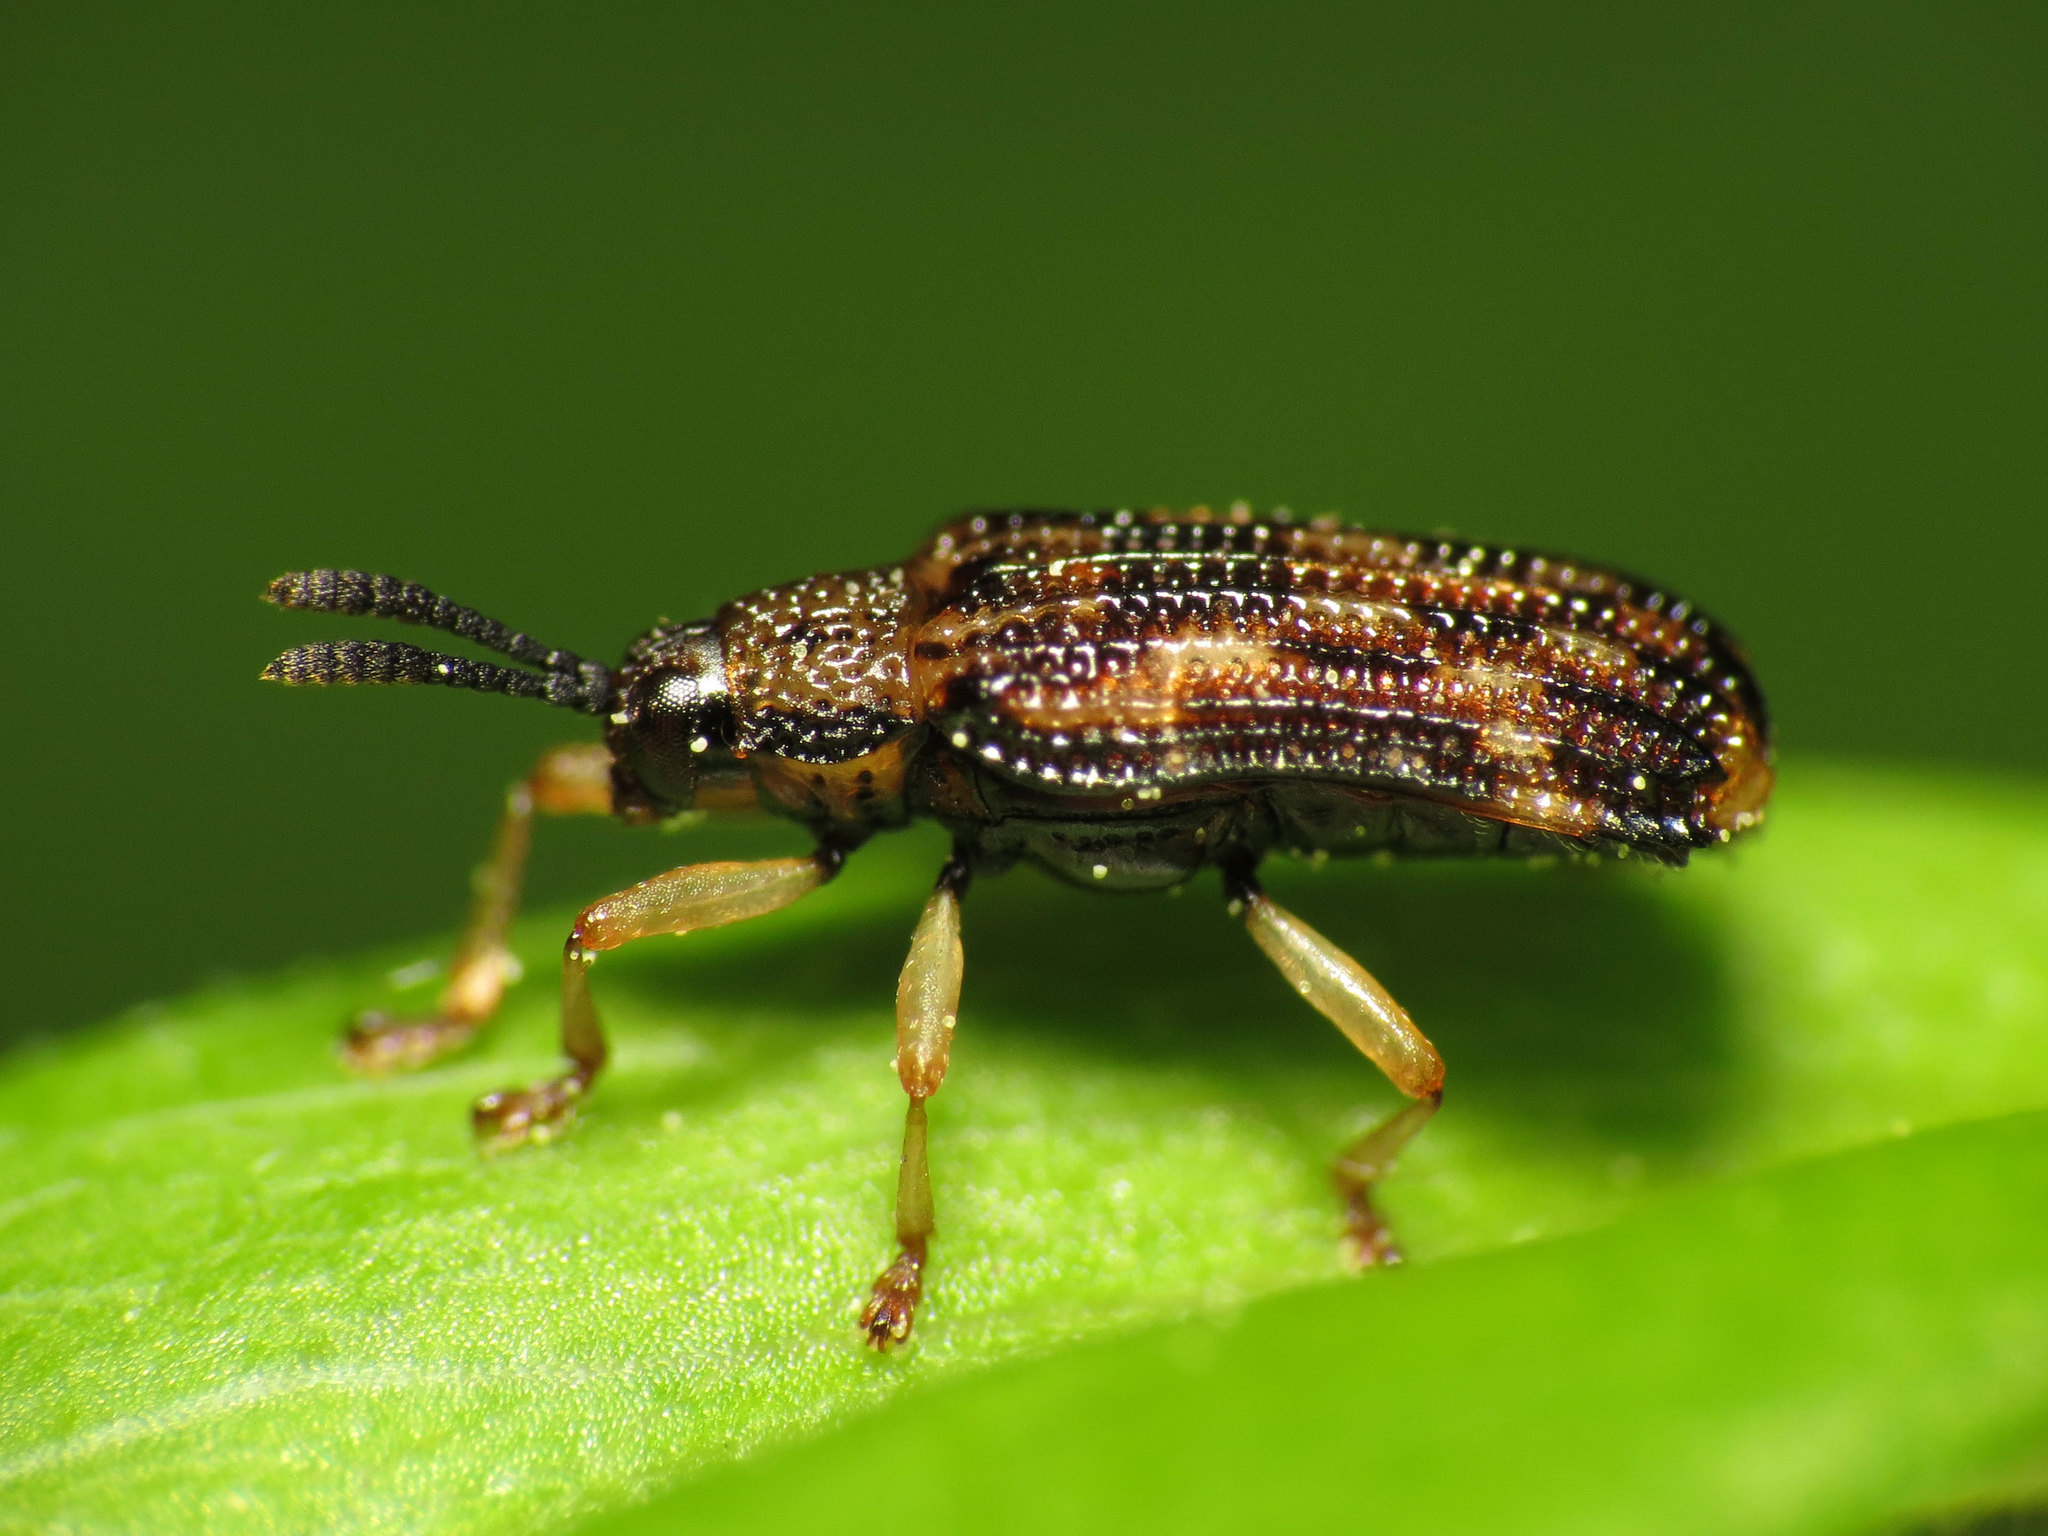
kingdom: Animalia
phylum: Arthropoda
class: Insecta
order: Coleoptera
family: Chrysomelidae
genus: Sumitrosis
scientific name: Sumitrosis inaequalis
